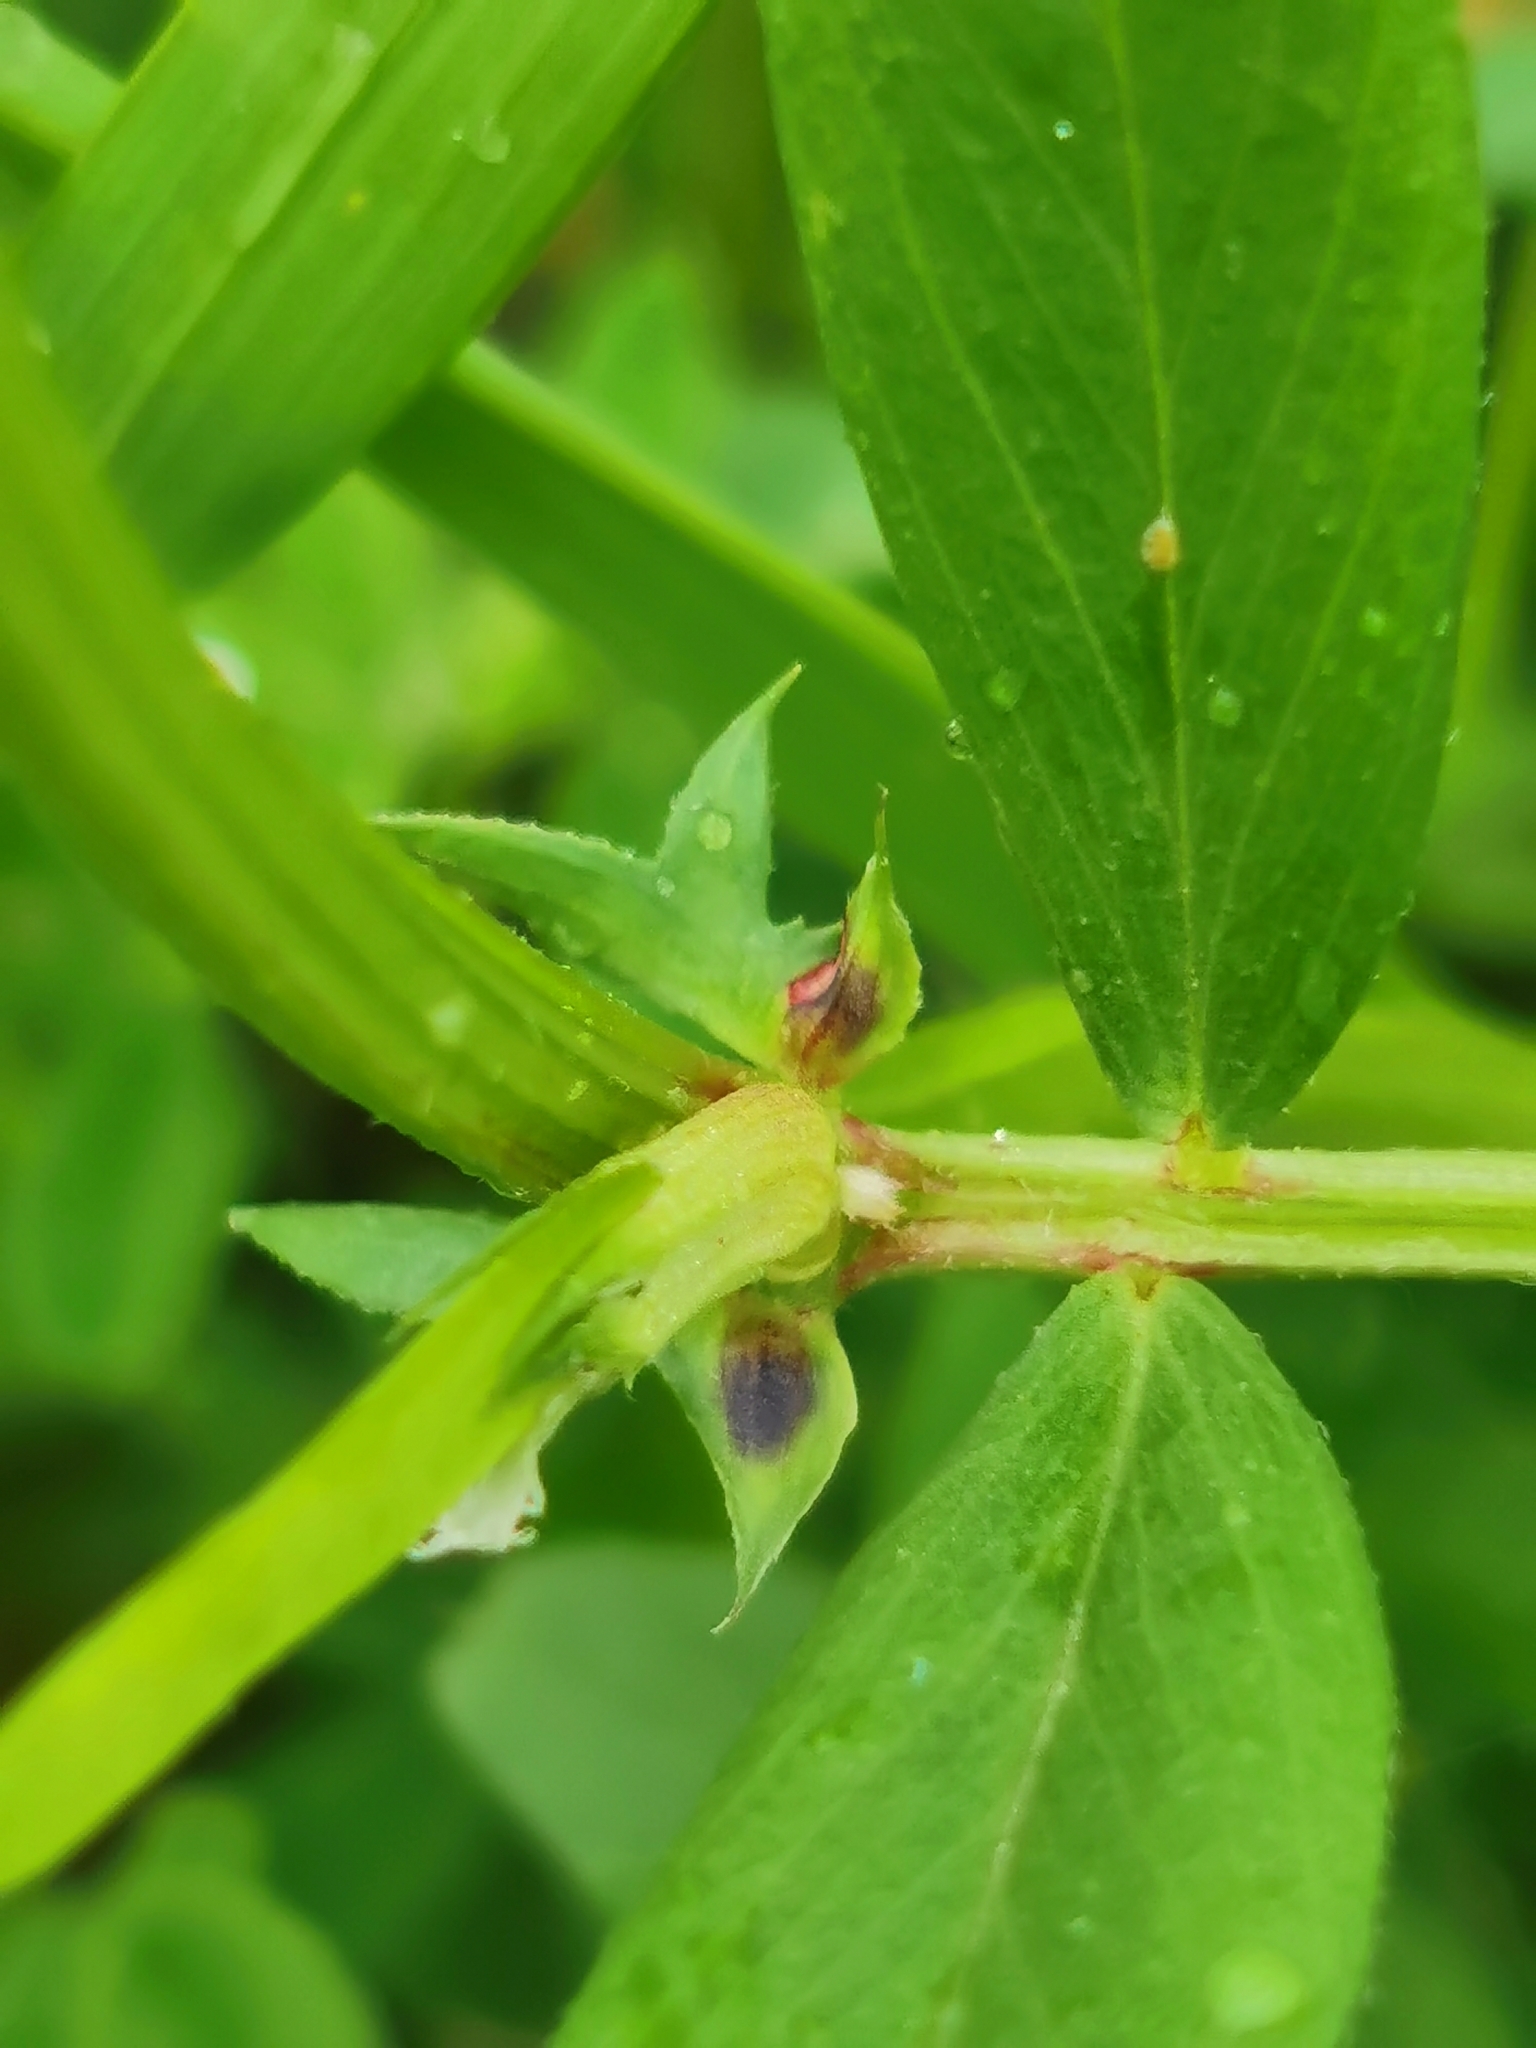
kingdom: Plantae
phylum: Tracheophyta
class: Magnoliopsida
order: Fabales
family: Fabaceae
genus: Vicia
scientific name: Vicia sativa
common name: Garden vetch
